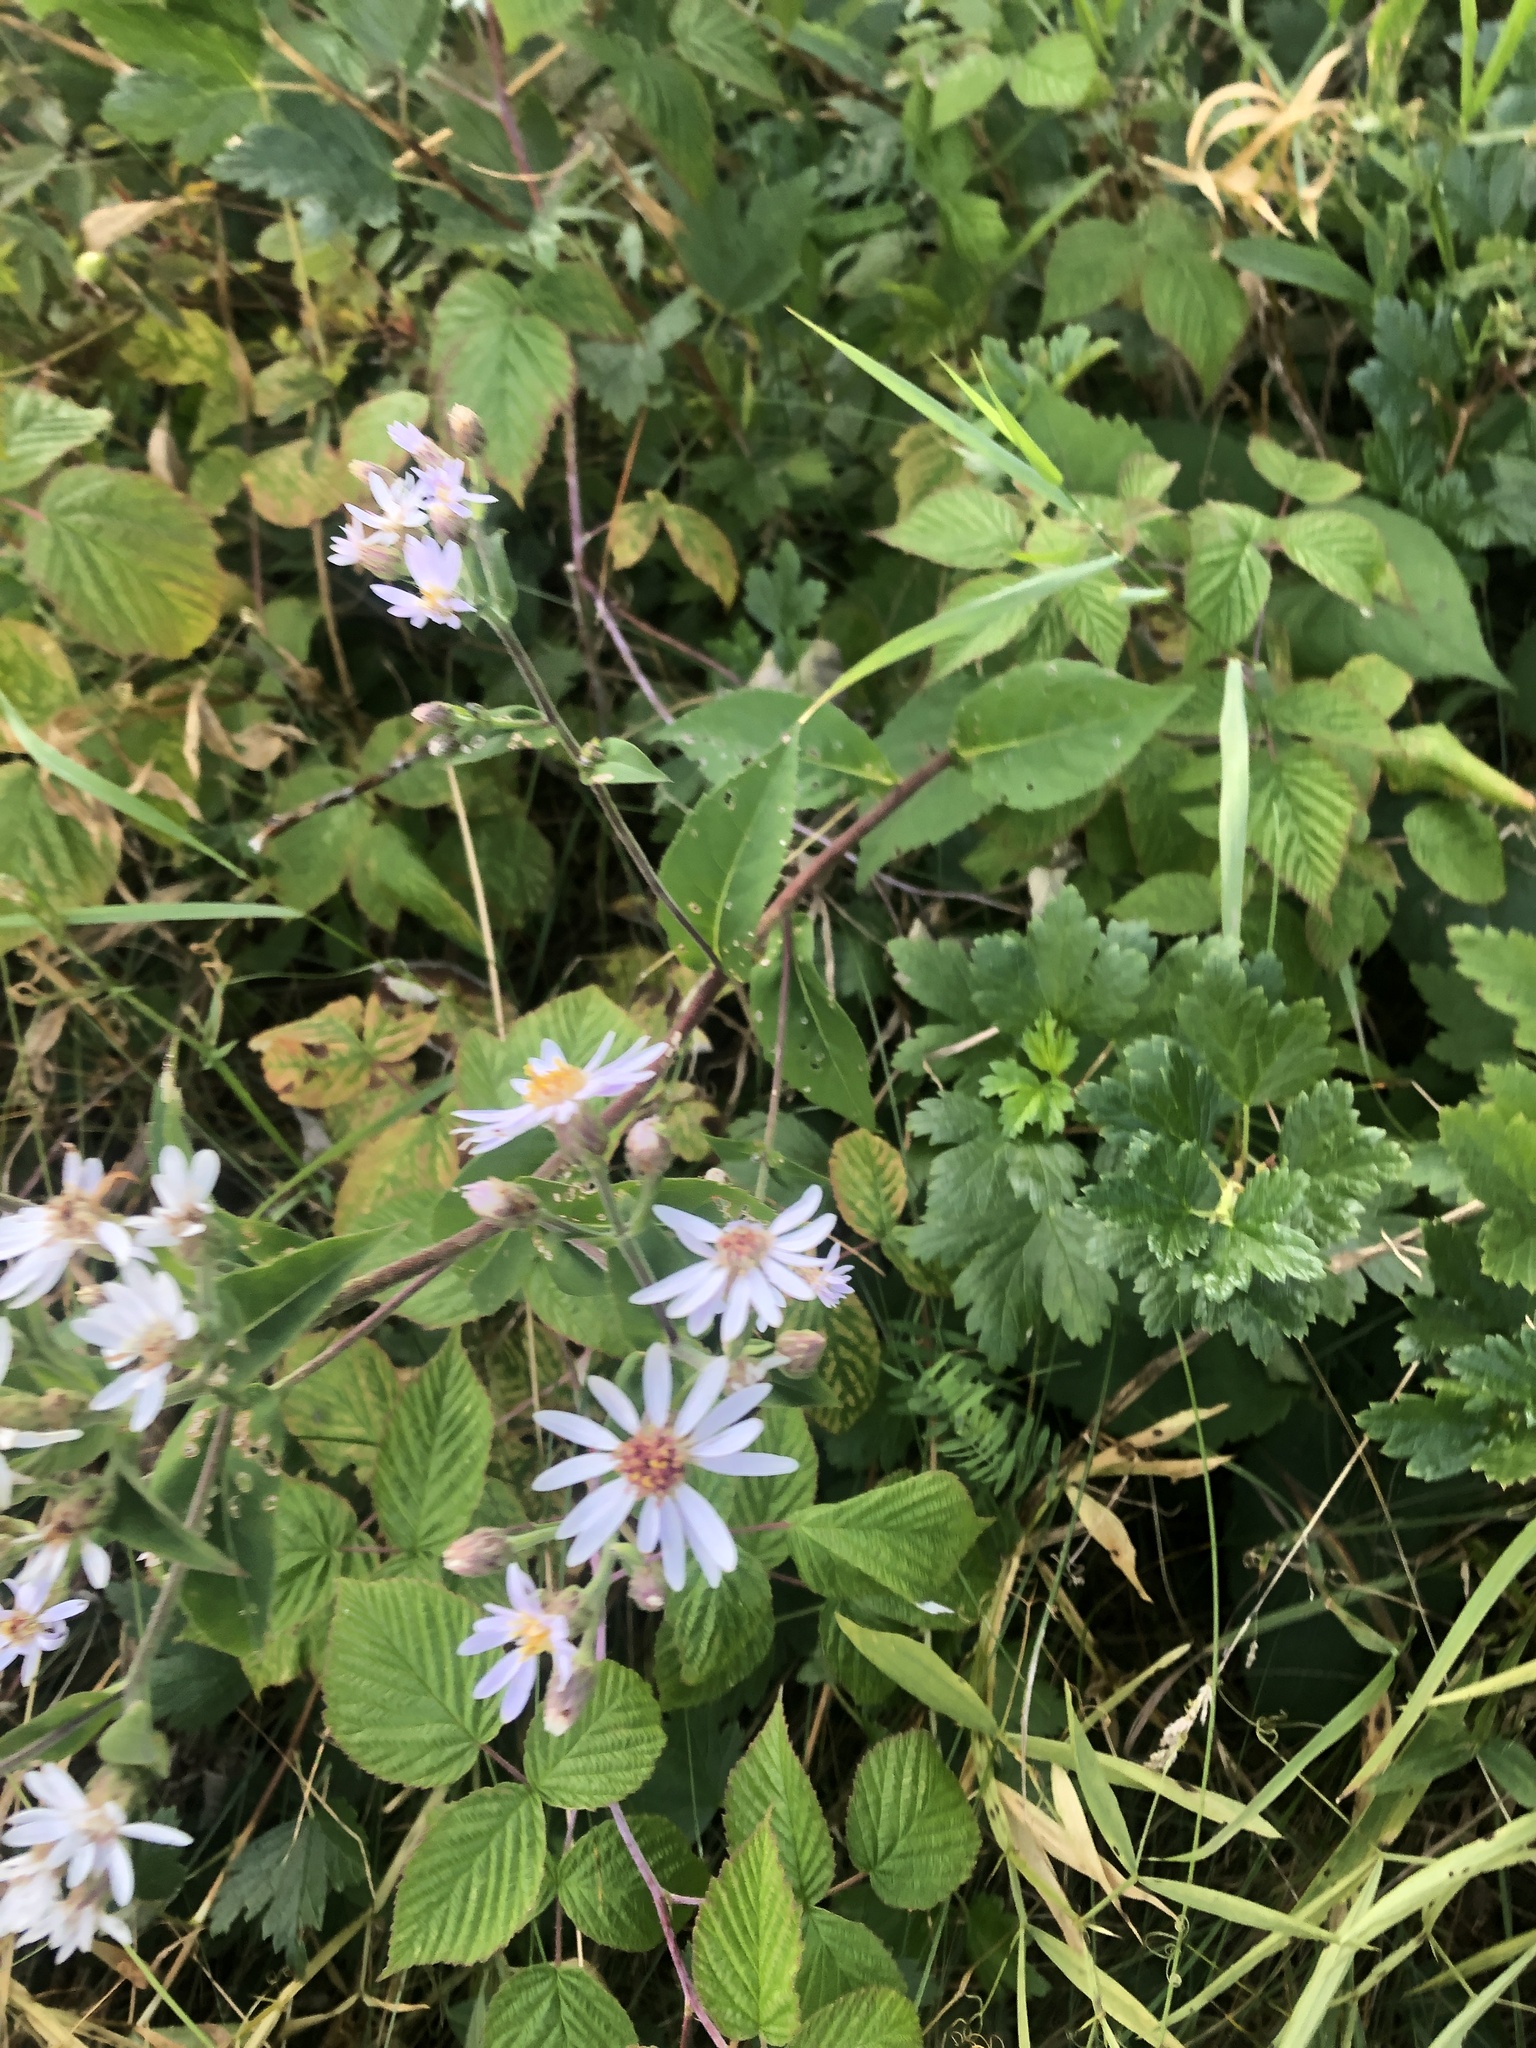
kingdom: Plantae
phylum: Tracheophyta
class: Magnoliopsida
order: Asterales
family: Asteraceae
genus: Eurybia
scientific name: Eurybia macrophylla
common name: Big-leaved aster
